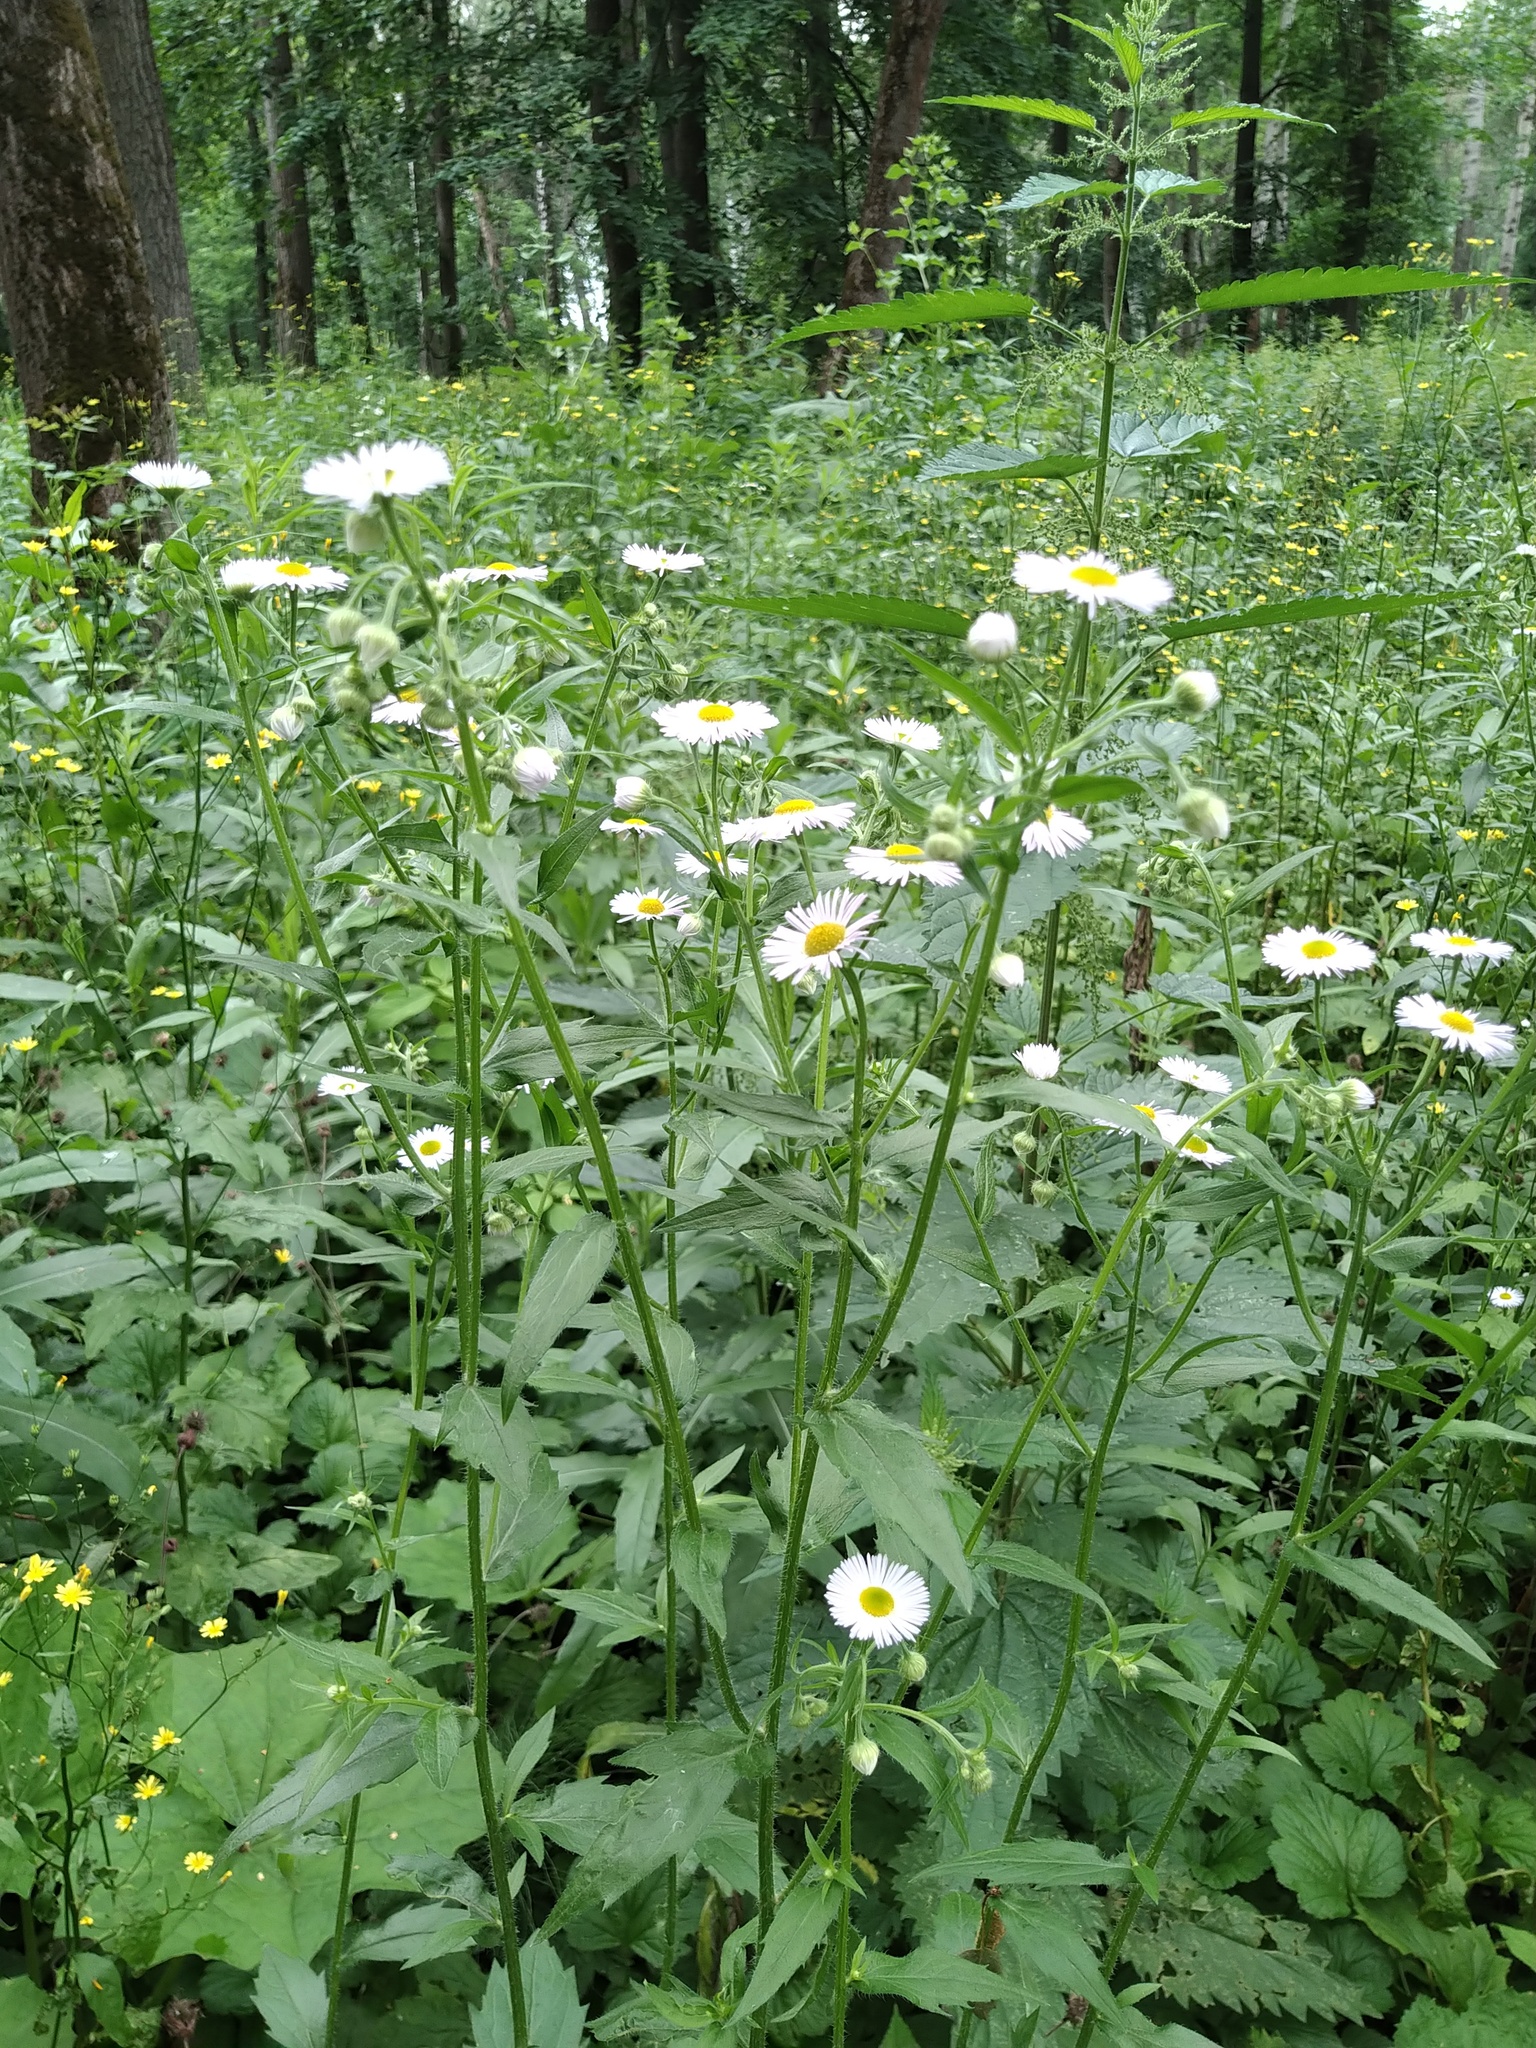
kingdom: Plantae
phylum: Tracheophyta
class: Magnoliopsida
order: Asterales
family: Asteraceae
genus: Erigeron
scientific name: Erigeron annuus
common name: Tall fleabane
